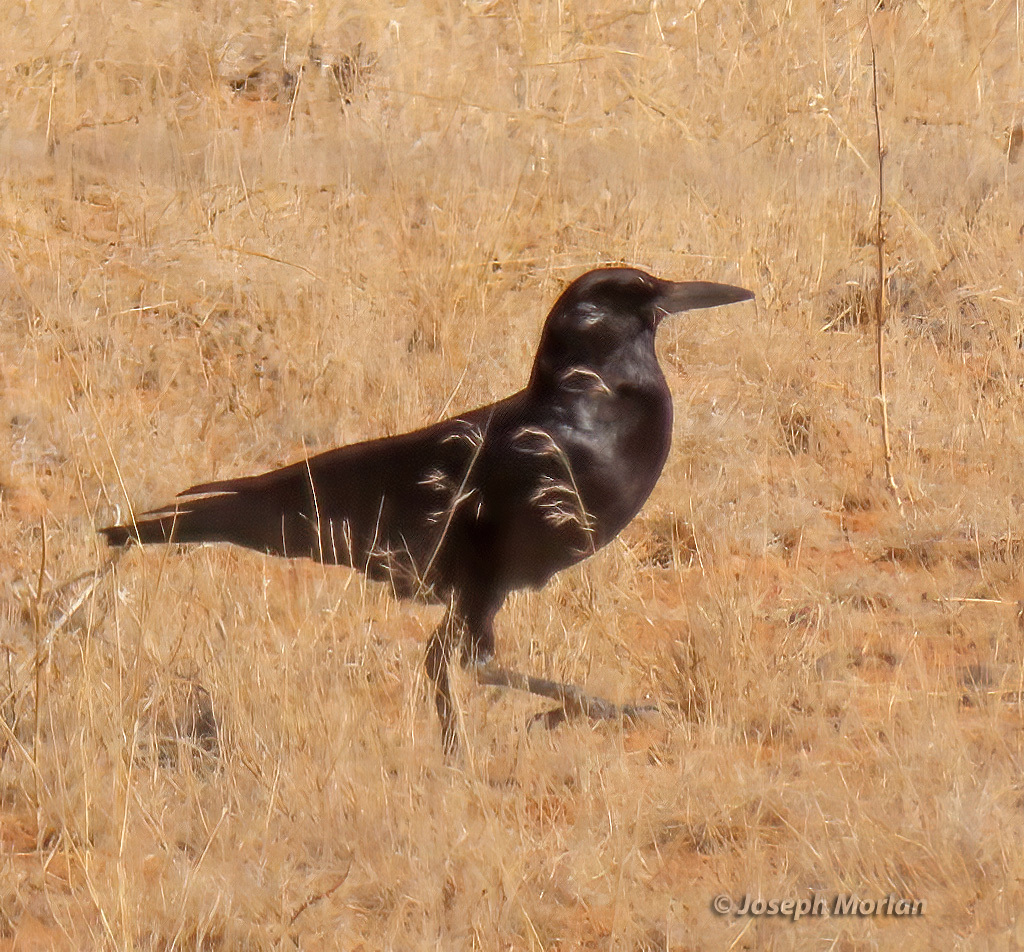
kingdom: Animalia
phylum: Chordata
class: Aves
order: Passeriformes
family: Corvidae
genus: Corvus
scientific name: Corvus capensis
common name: Cape crow
